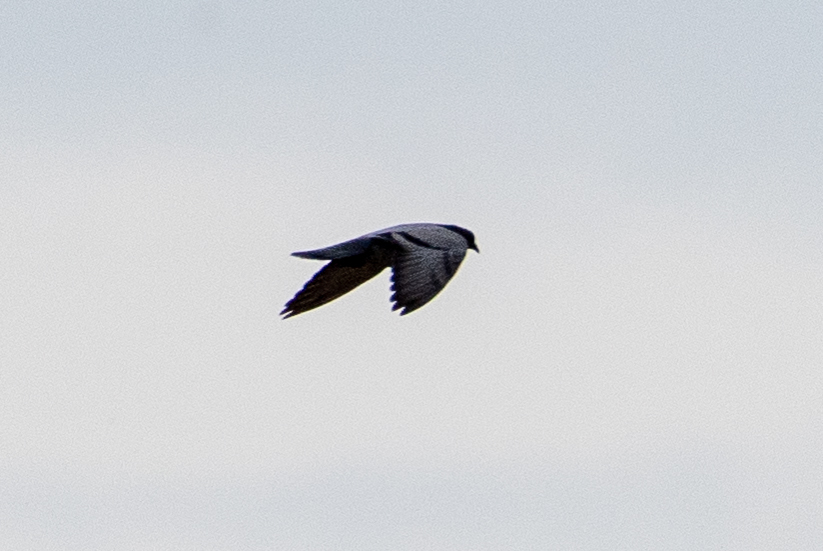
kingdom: Animalia
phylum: Chordata
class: Aves
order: Columbiformes
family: Columbidae
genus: Columba
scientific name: Columba livia
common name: Rock pigeon
